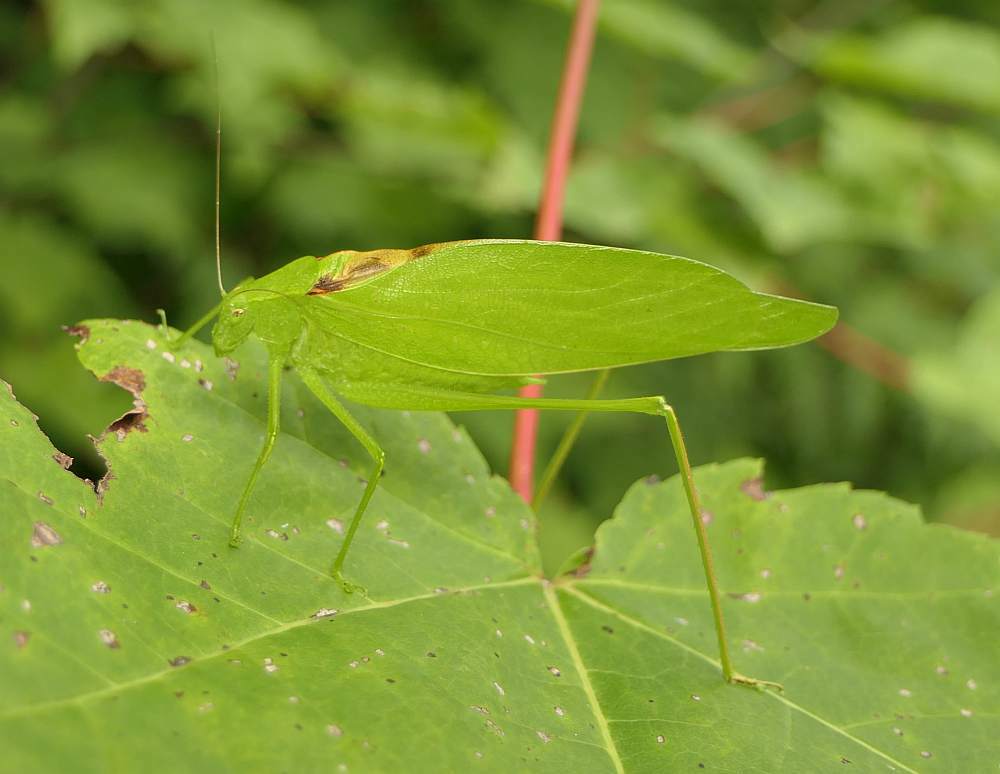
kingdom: Animalia
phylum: Arthropoda
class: Insecta
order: Orthoptera
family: Tettigoniidae
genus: Amblycorypha
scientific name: Amblycorypha oblongifolia
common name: Oblong-winged katydid
